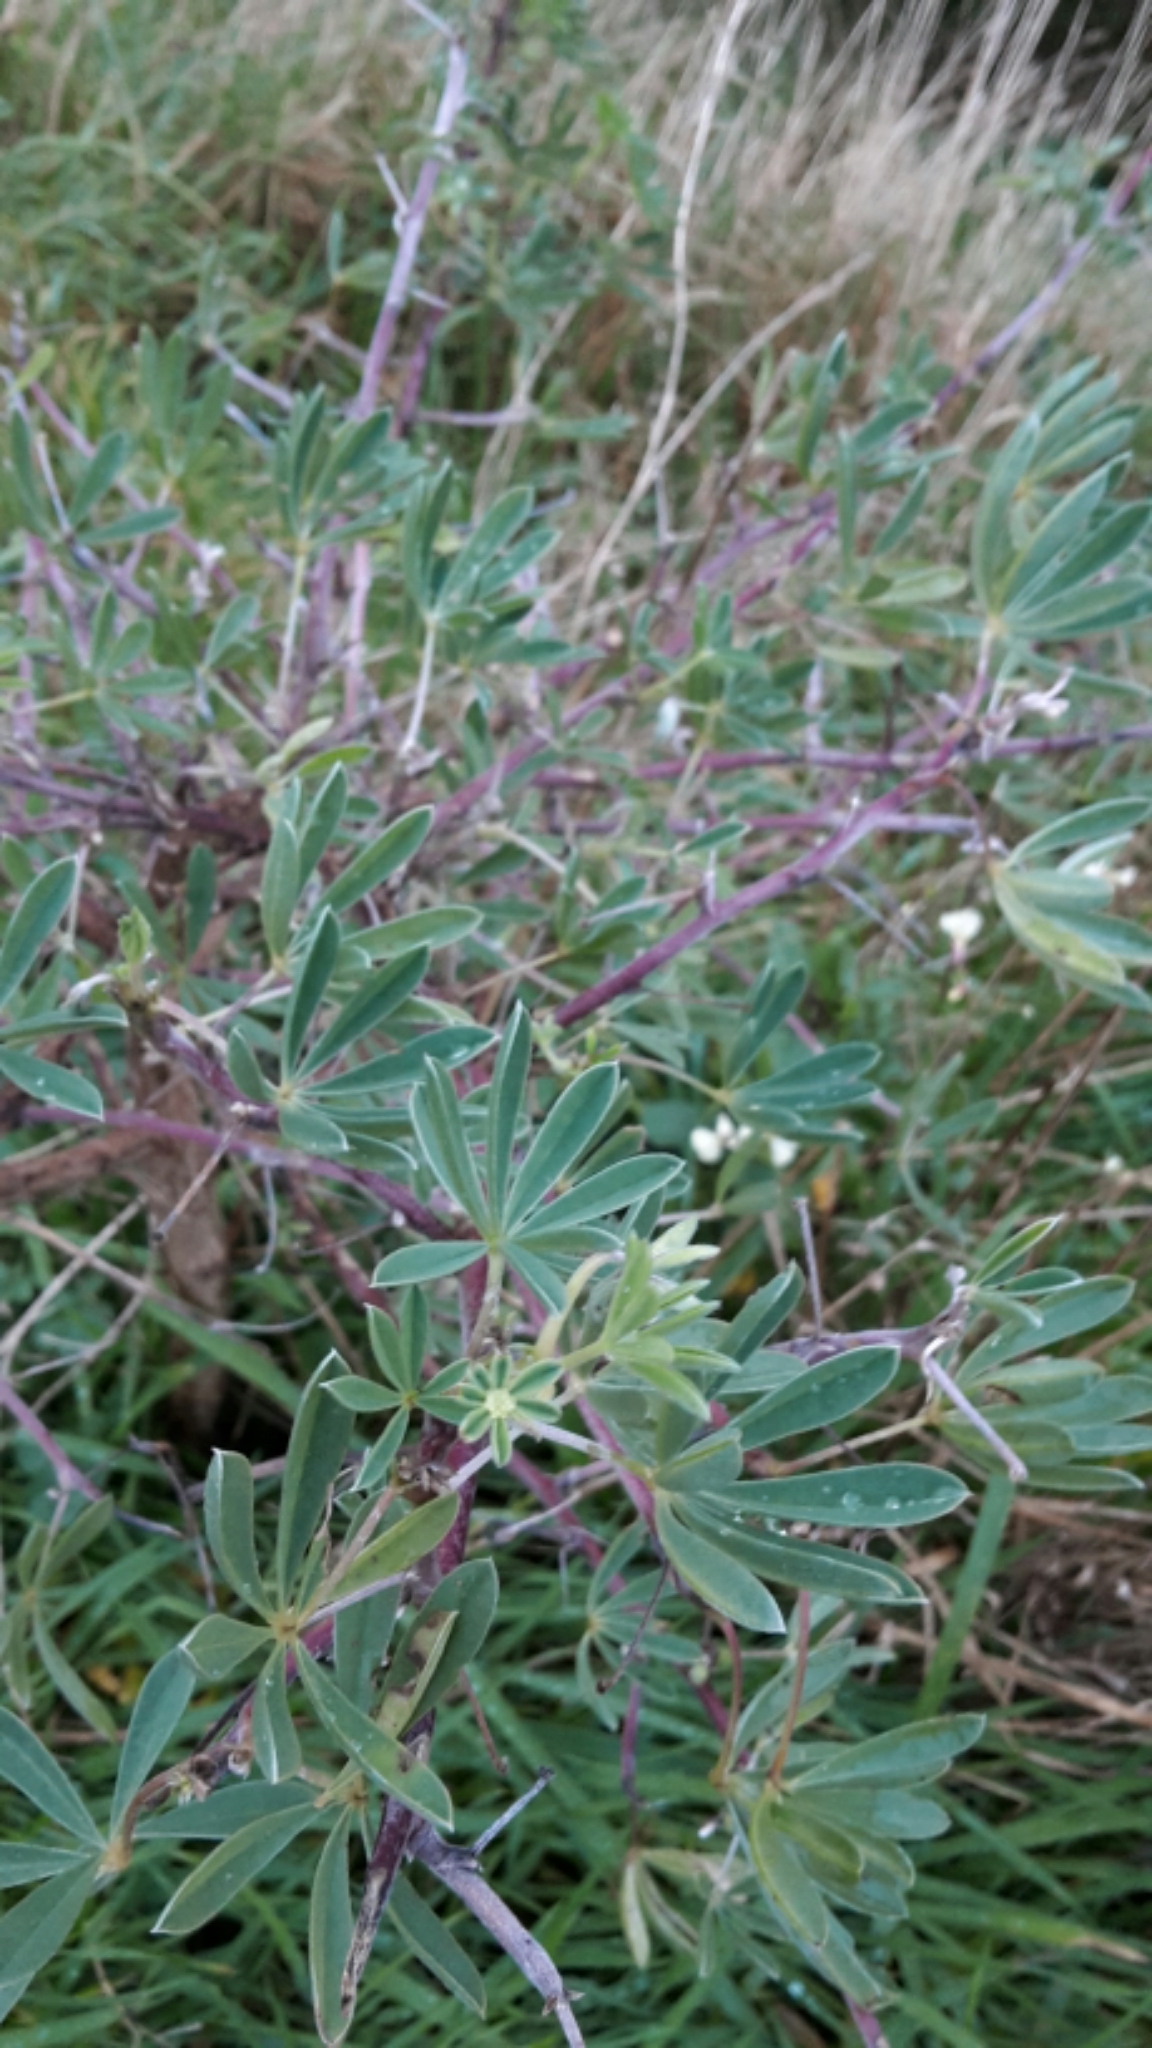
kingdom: Plantae
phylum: Tracheophyta
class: Magnoliopsida
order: Fabales
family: Fabaceae
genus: Lupinus
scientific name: Lupinus arboreus
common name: Yellow bush lupine
